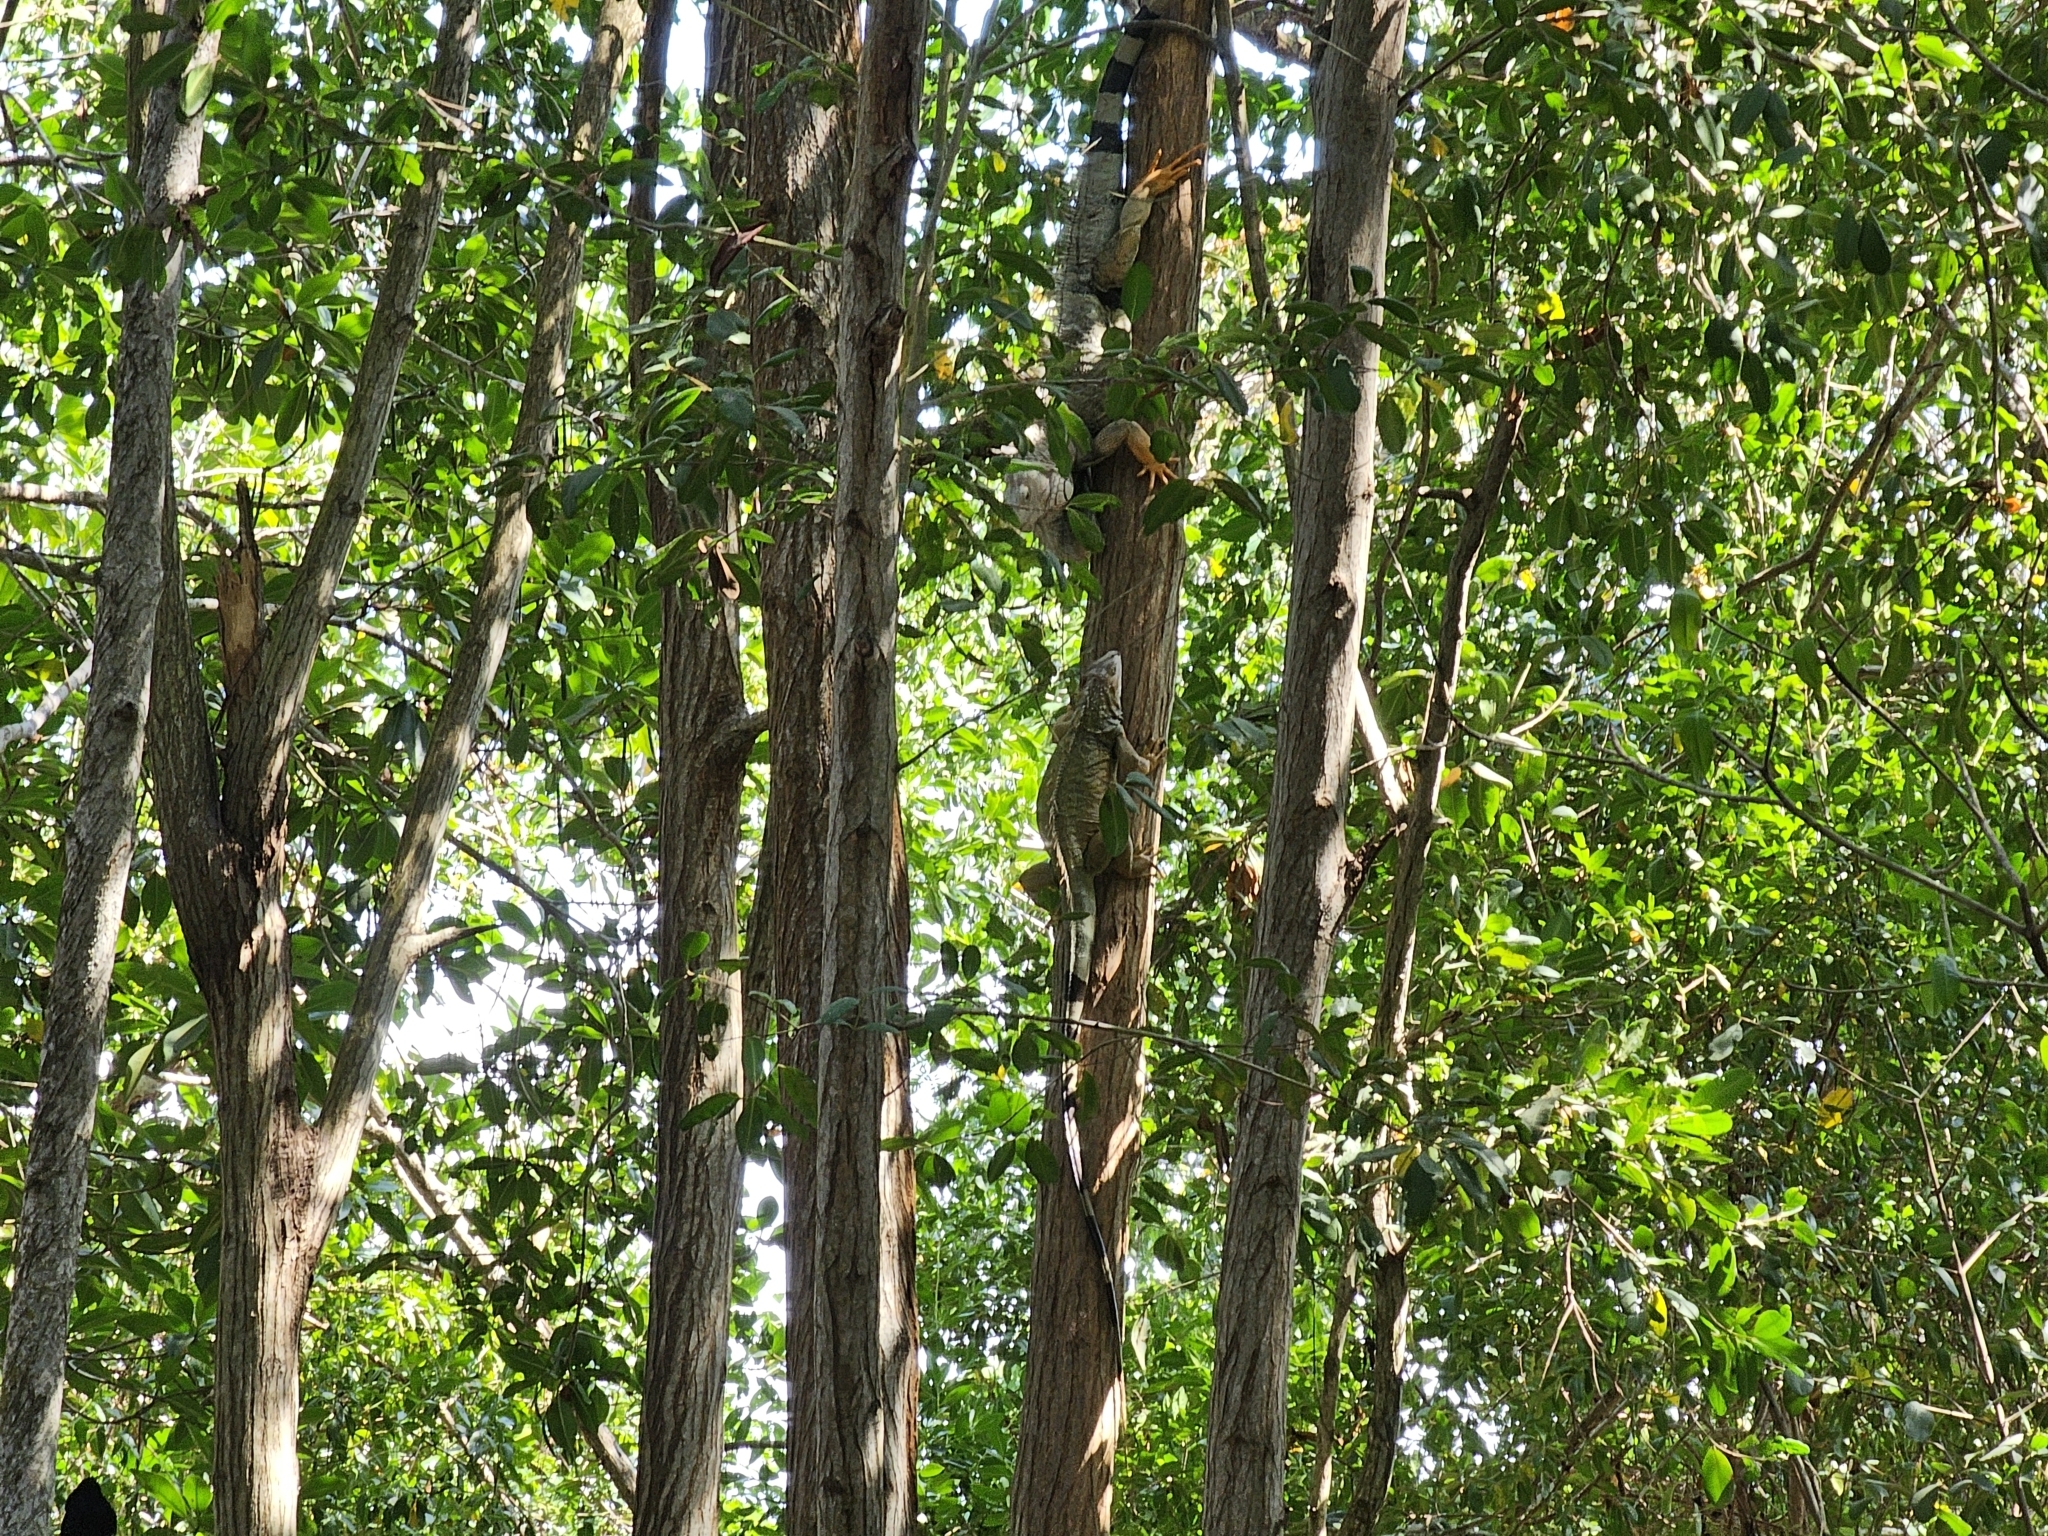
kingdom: Animalia
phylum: Chordata
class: Squamata
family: Iguanidae
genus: Iguana
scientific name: Iguana iguana
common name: Green iguana
